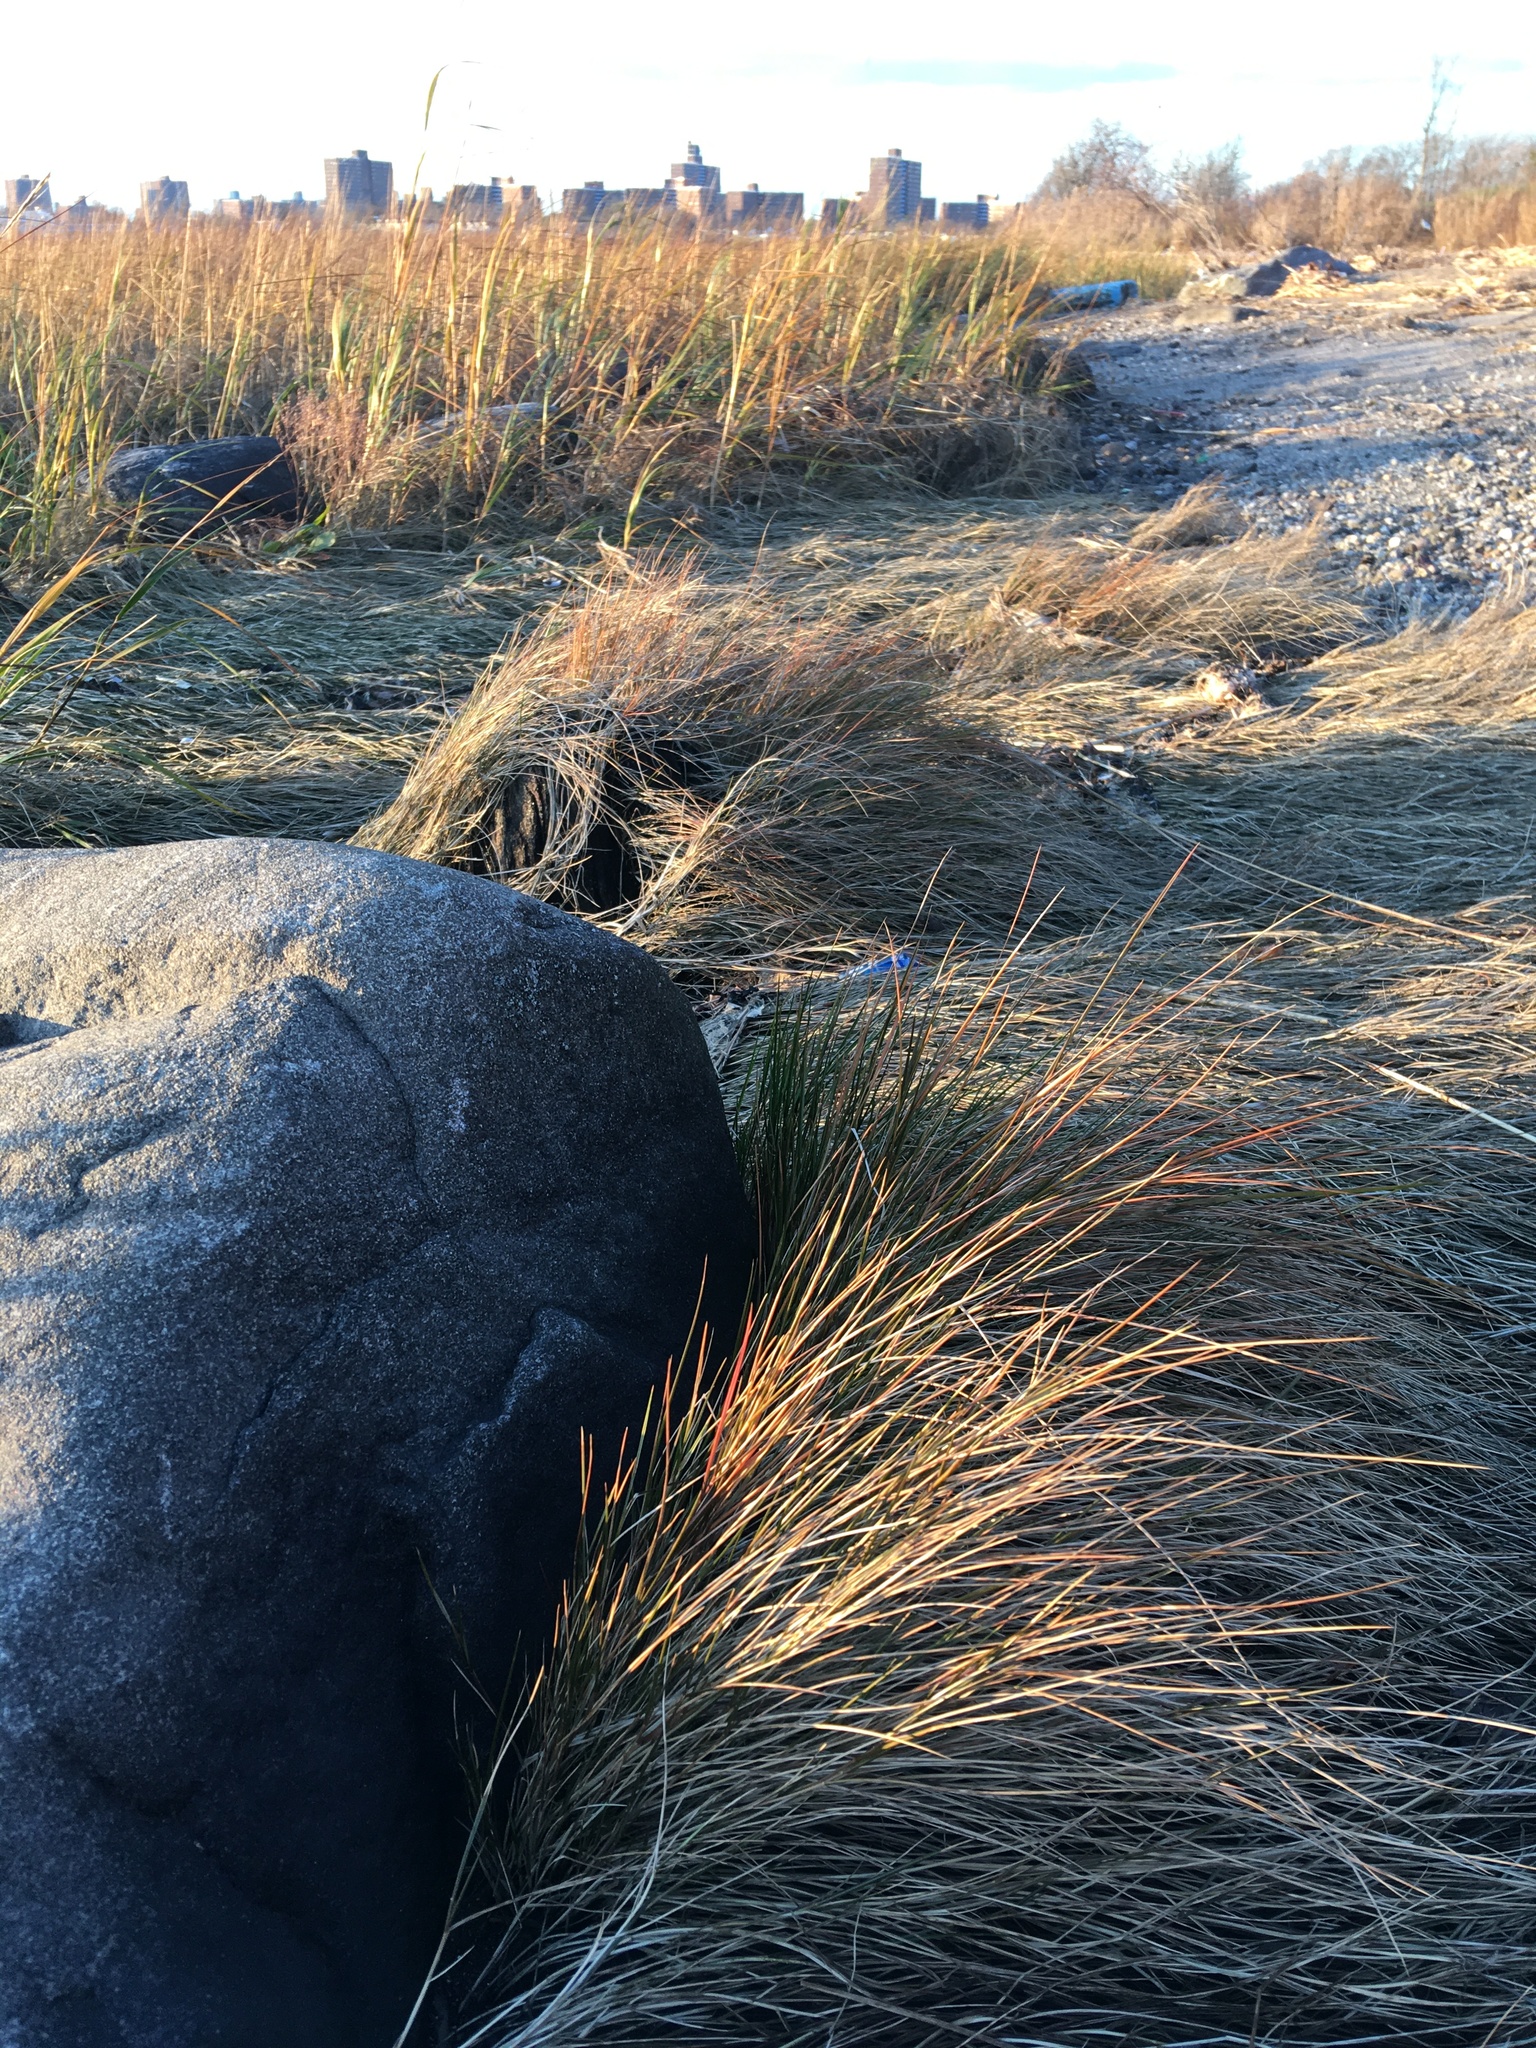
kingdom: Plantae
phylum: Tracheophyta
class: Liliopsida
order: Poales
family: Poaceae
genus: Sporobolus
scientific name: Sporobolus pumilus
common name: Highwater grass
